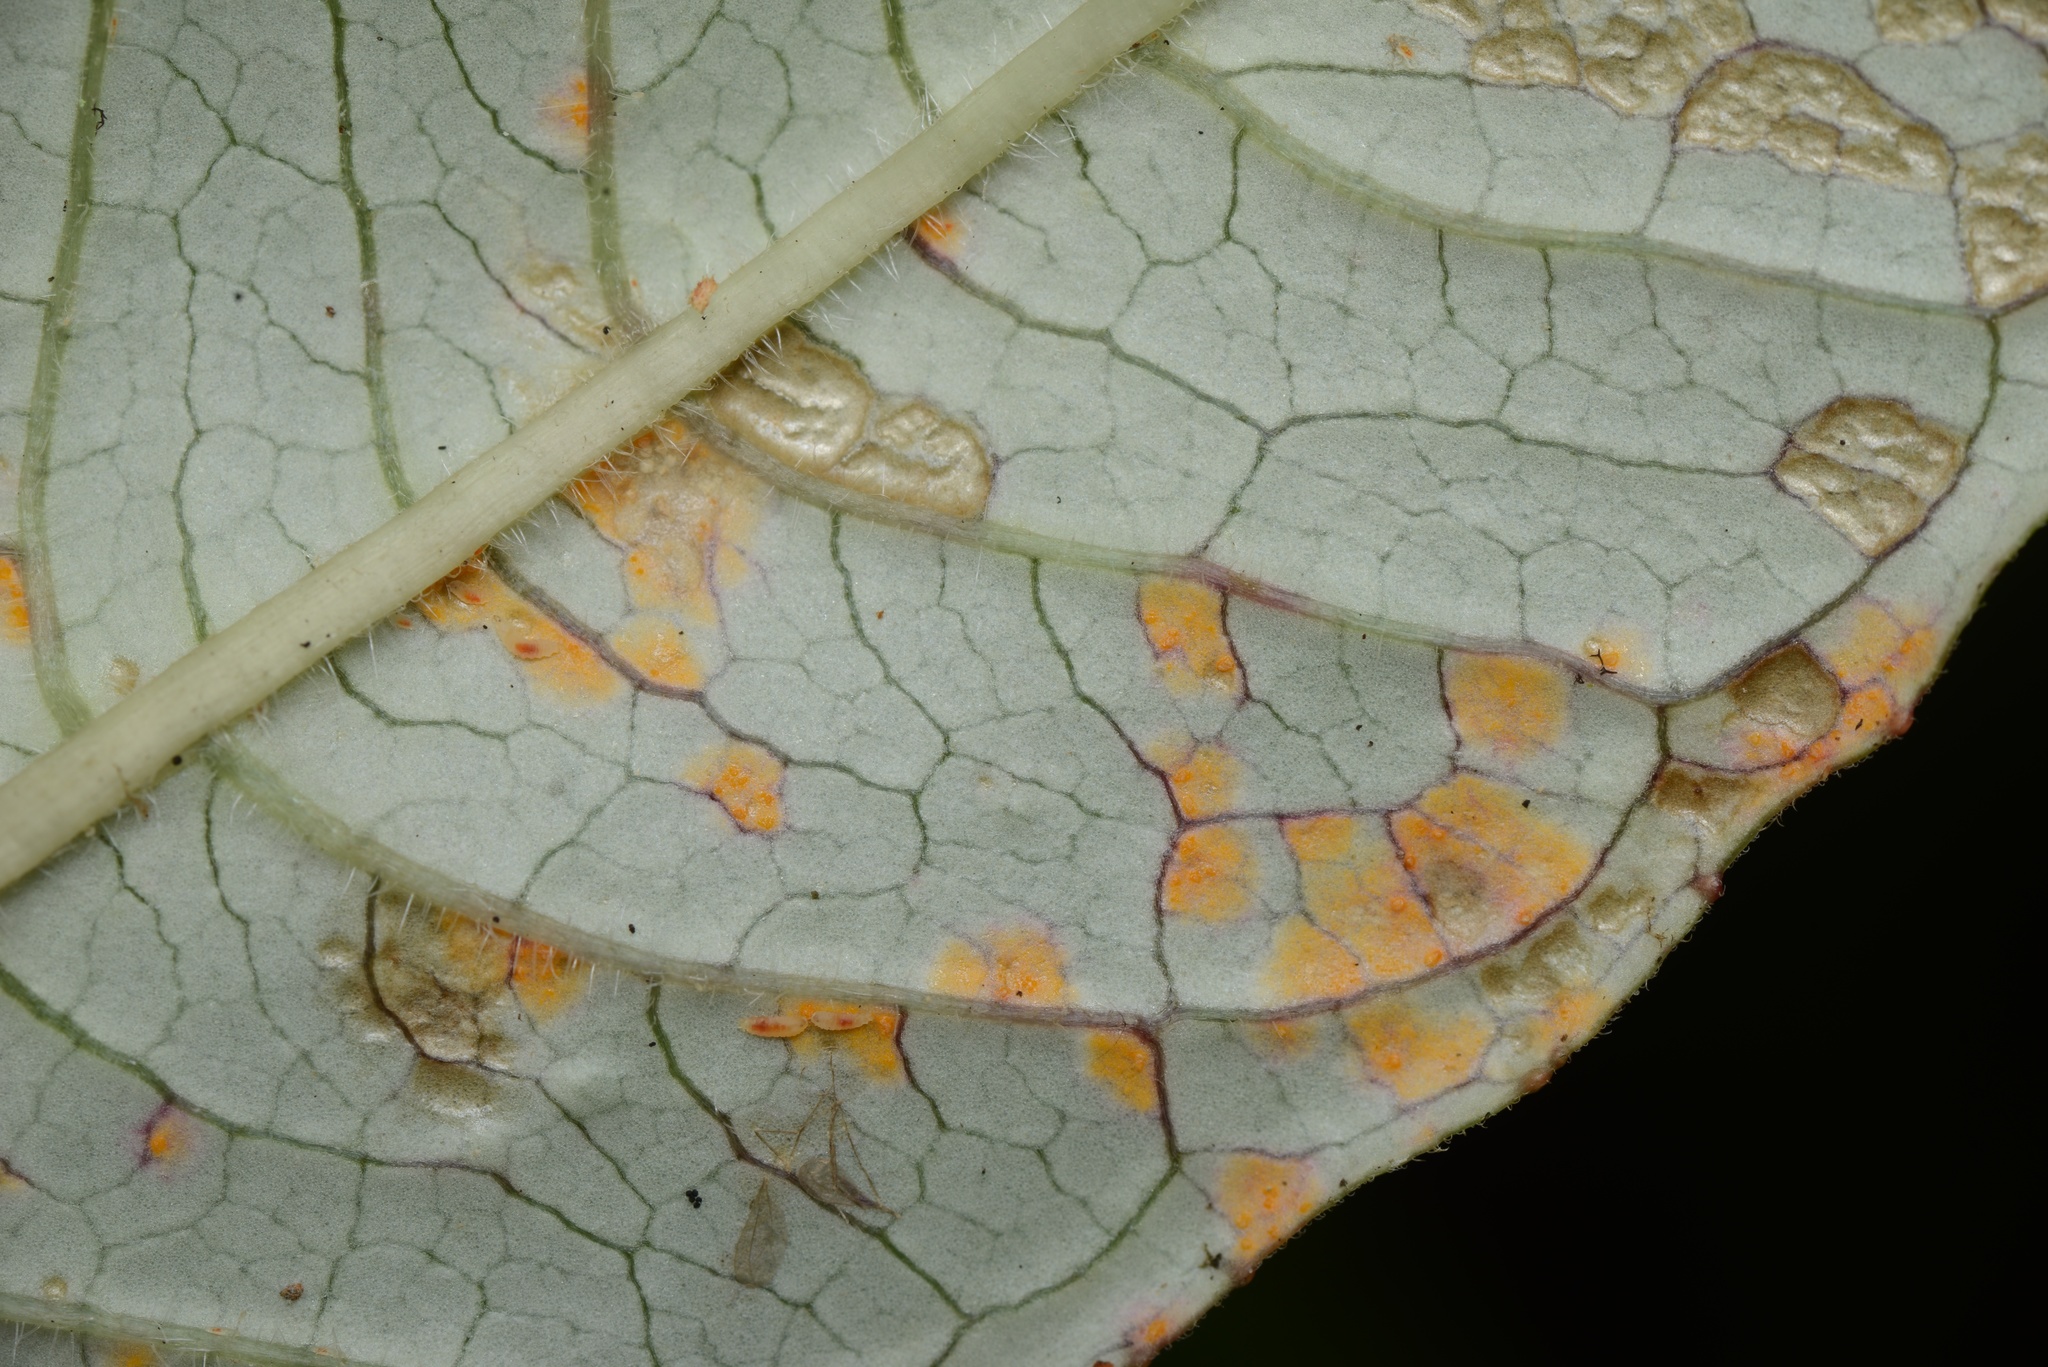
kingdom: Fungi
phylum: Basidiomycota
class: Pucciniomycetes
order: Pucciniales
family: Mikronegeriaceae
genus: Mikronegeria
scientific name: Mikronegeria fuchsiae
